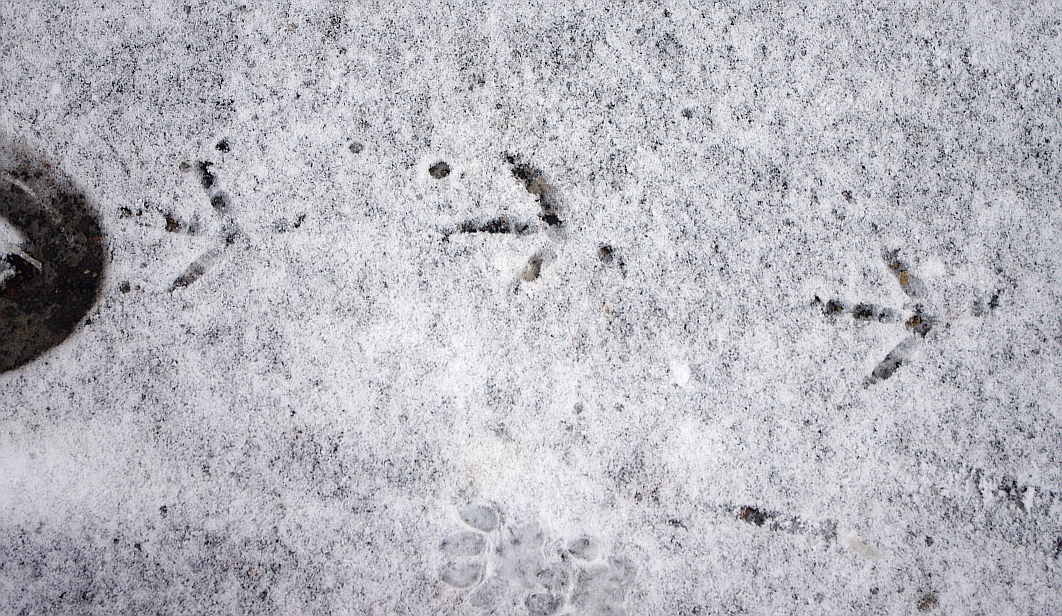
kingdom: Animalia
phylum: Chordata
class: Aves
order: Columbiformes
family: Columbidae
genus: Columba
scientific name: Columba livia
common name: Rock pigeon
